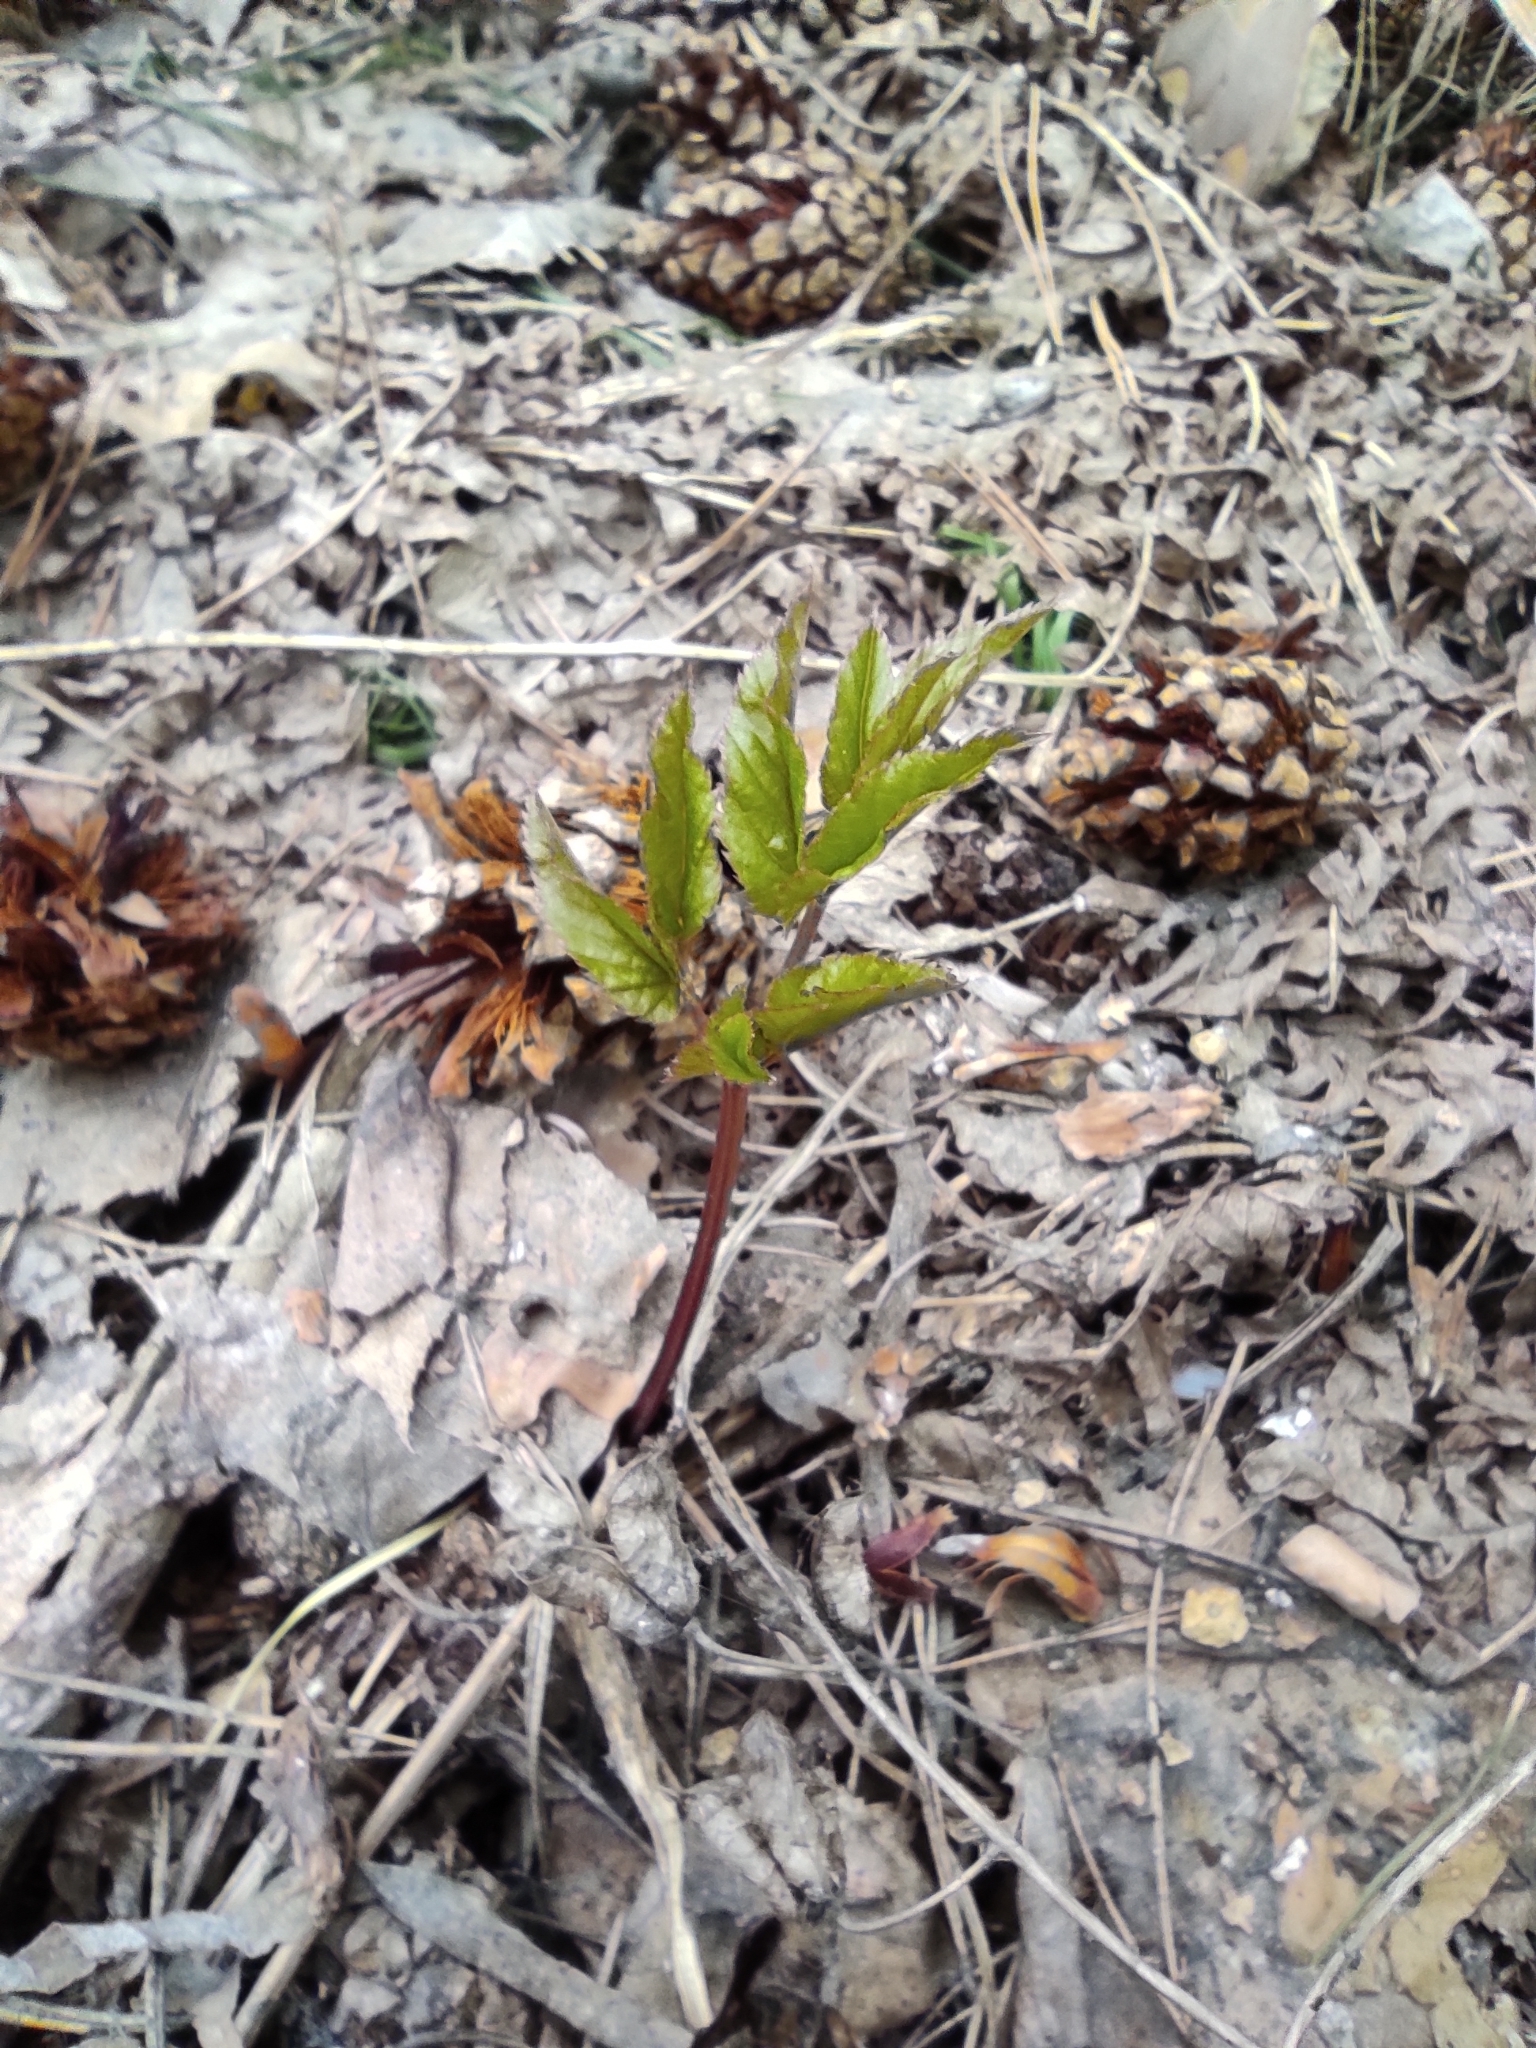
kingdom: Plantae
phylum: Tracheophyta
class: Magnoliopsida
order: Apiales
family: Apiaceae
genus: Aegopodium
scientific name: Aegopodium podagraria
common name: Ground-elder
